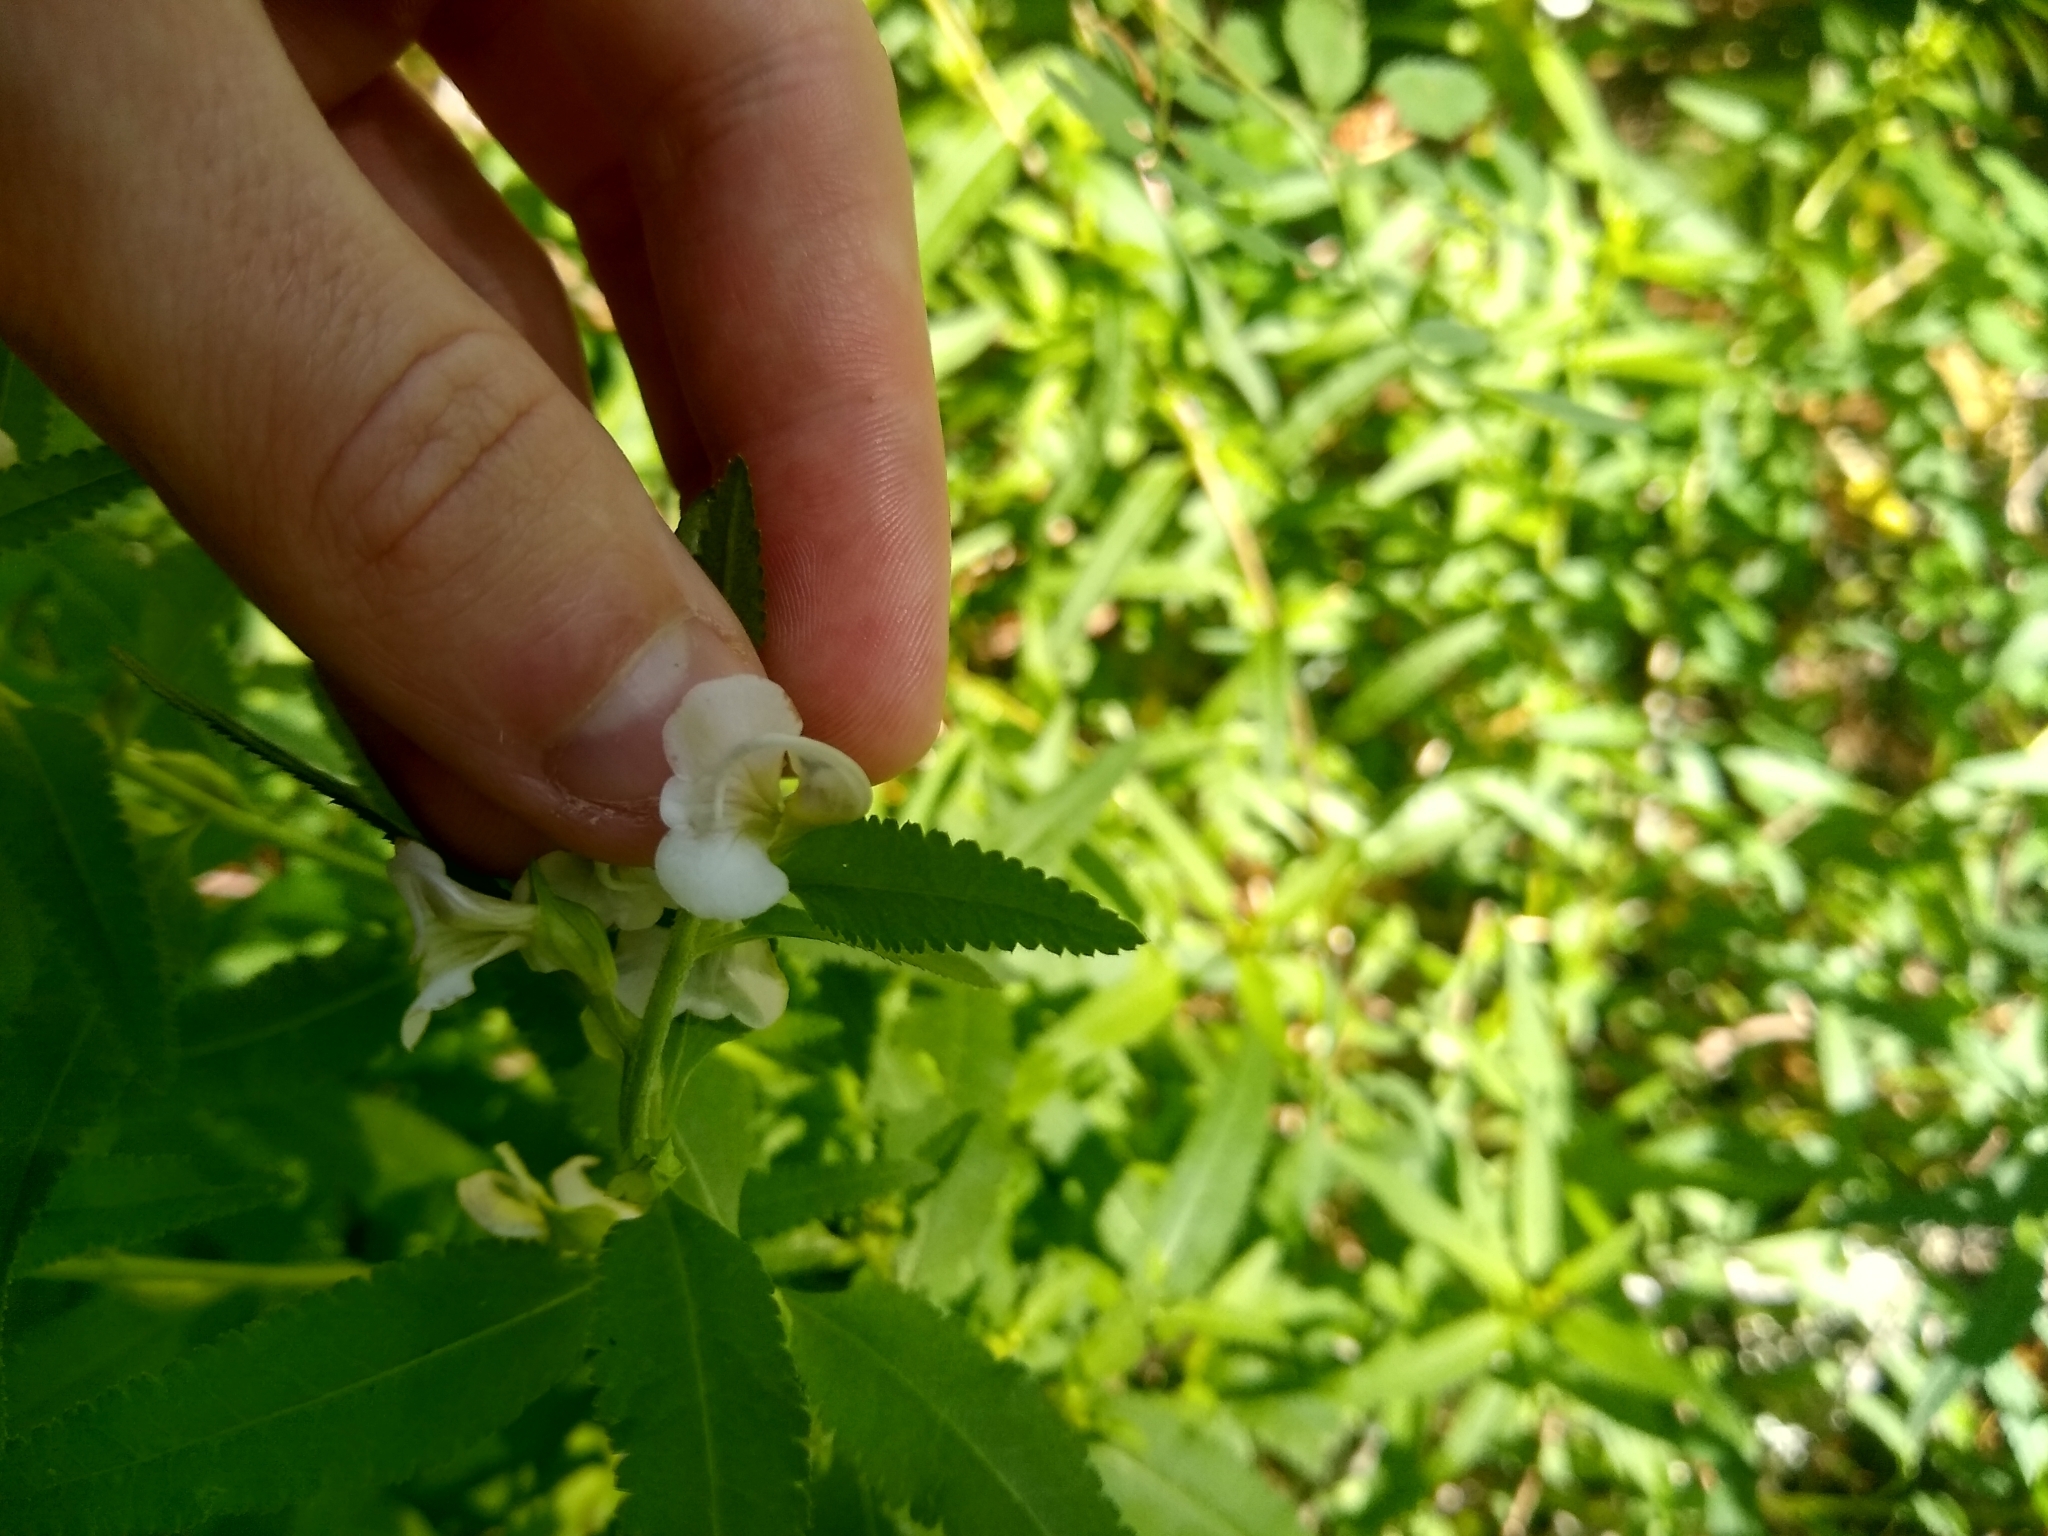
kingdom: Plantae
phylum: Tracheophyta
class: Magnoliopsida
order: Lamiales
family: Orobanchaceae
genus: Pedicularis
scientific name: Pedicularis racemosa
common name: Leafy lousewort
